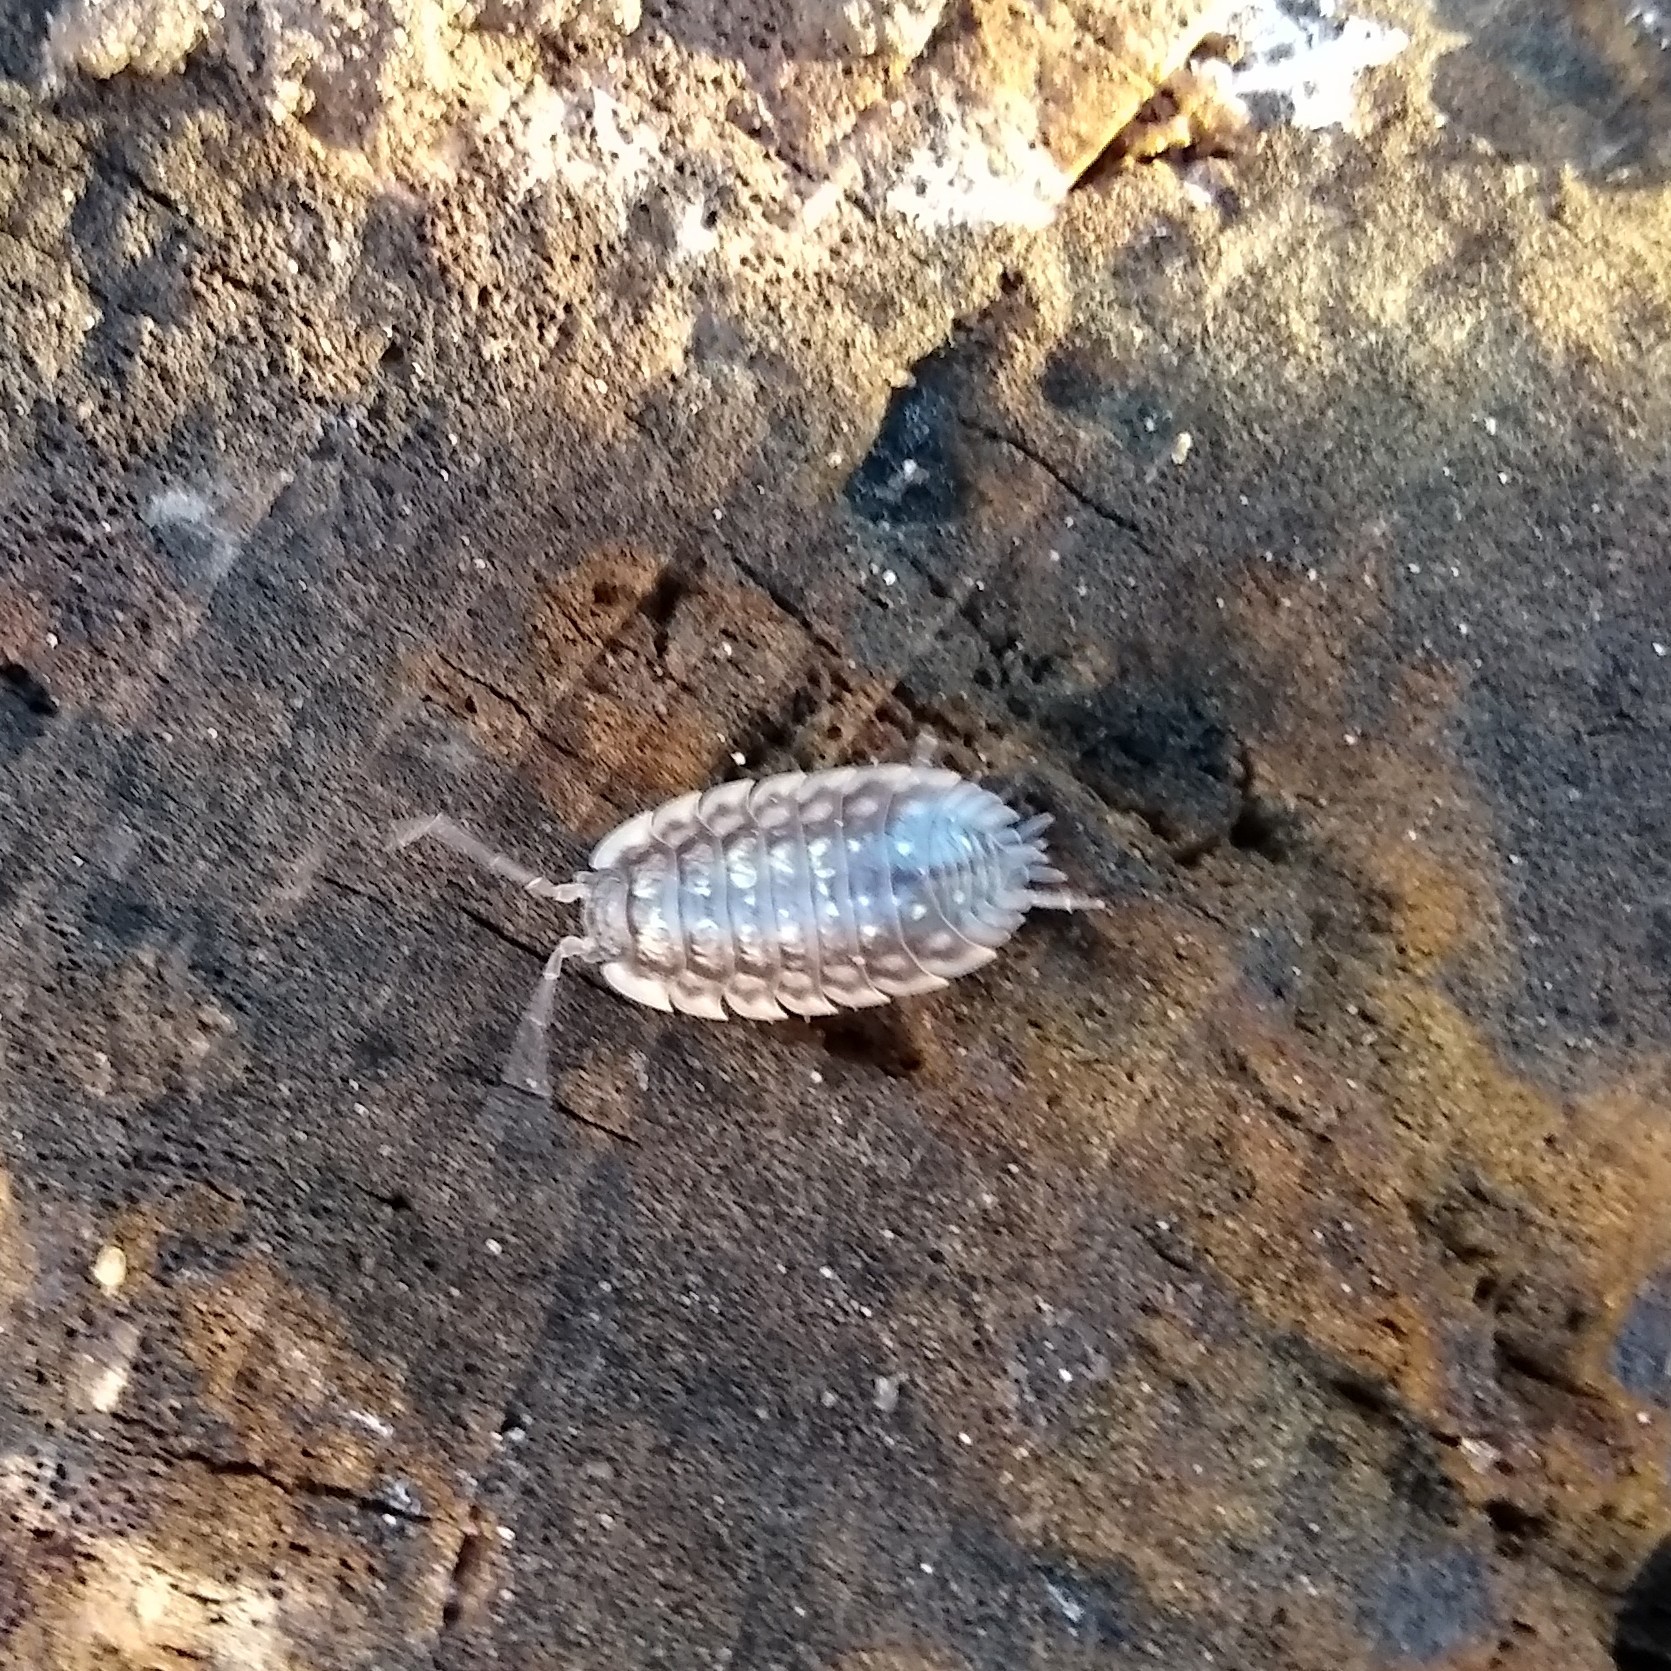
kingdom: Animalia
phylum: Arthropoda
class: Malacostraca
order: Isopoda
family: Oniscidae
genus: Oniscus
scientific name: Oniscus asellus
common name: Common shiny woodlouse
